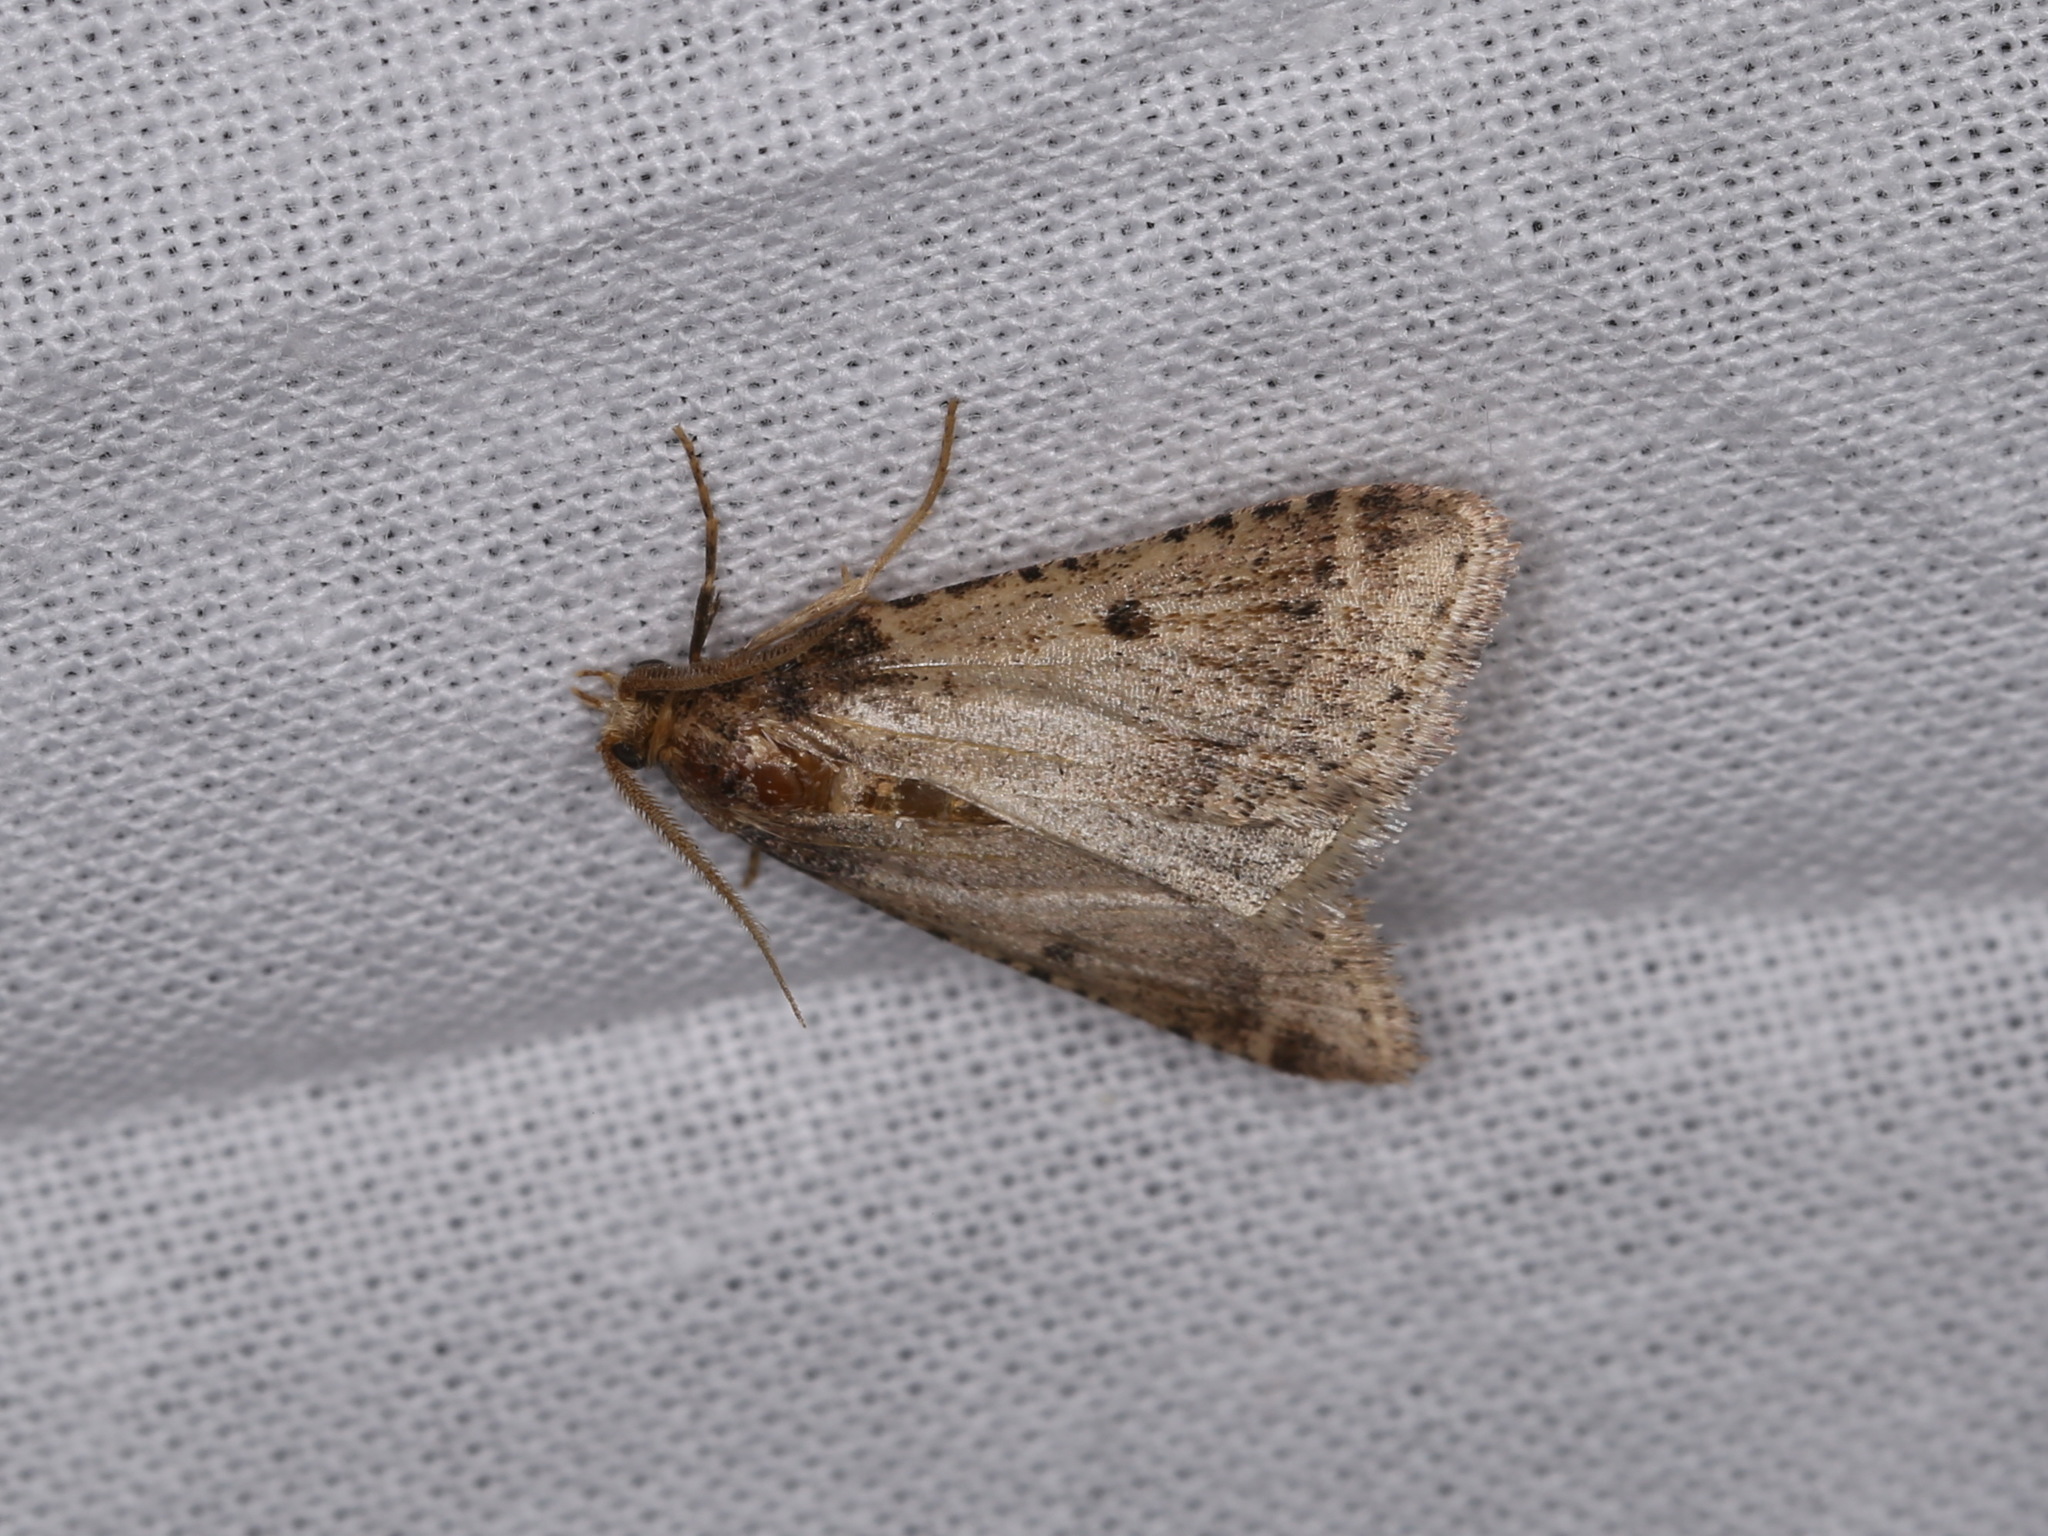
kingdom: Animalia
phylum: Arthropoda
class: Insecta
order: Lepidoptera
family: Pyralidae
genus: Philotis
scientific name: Philotis basalis
